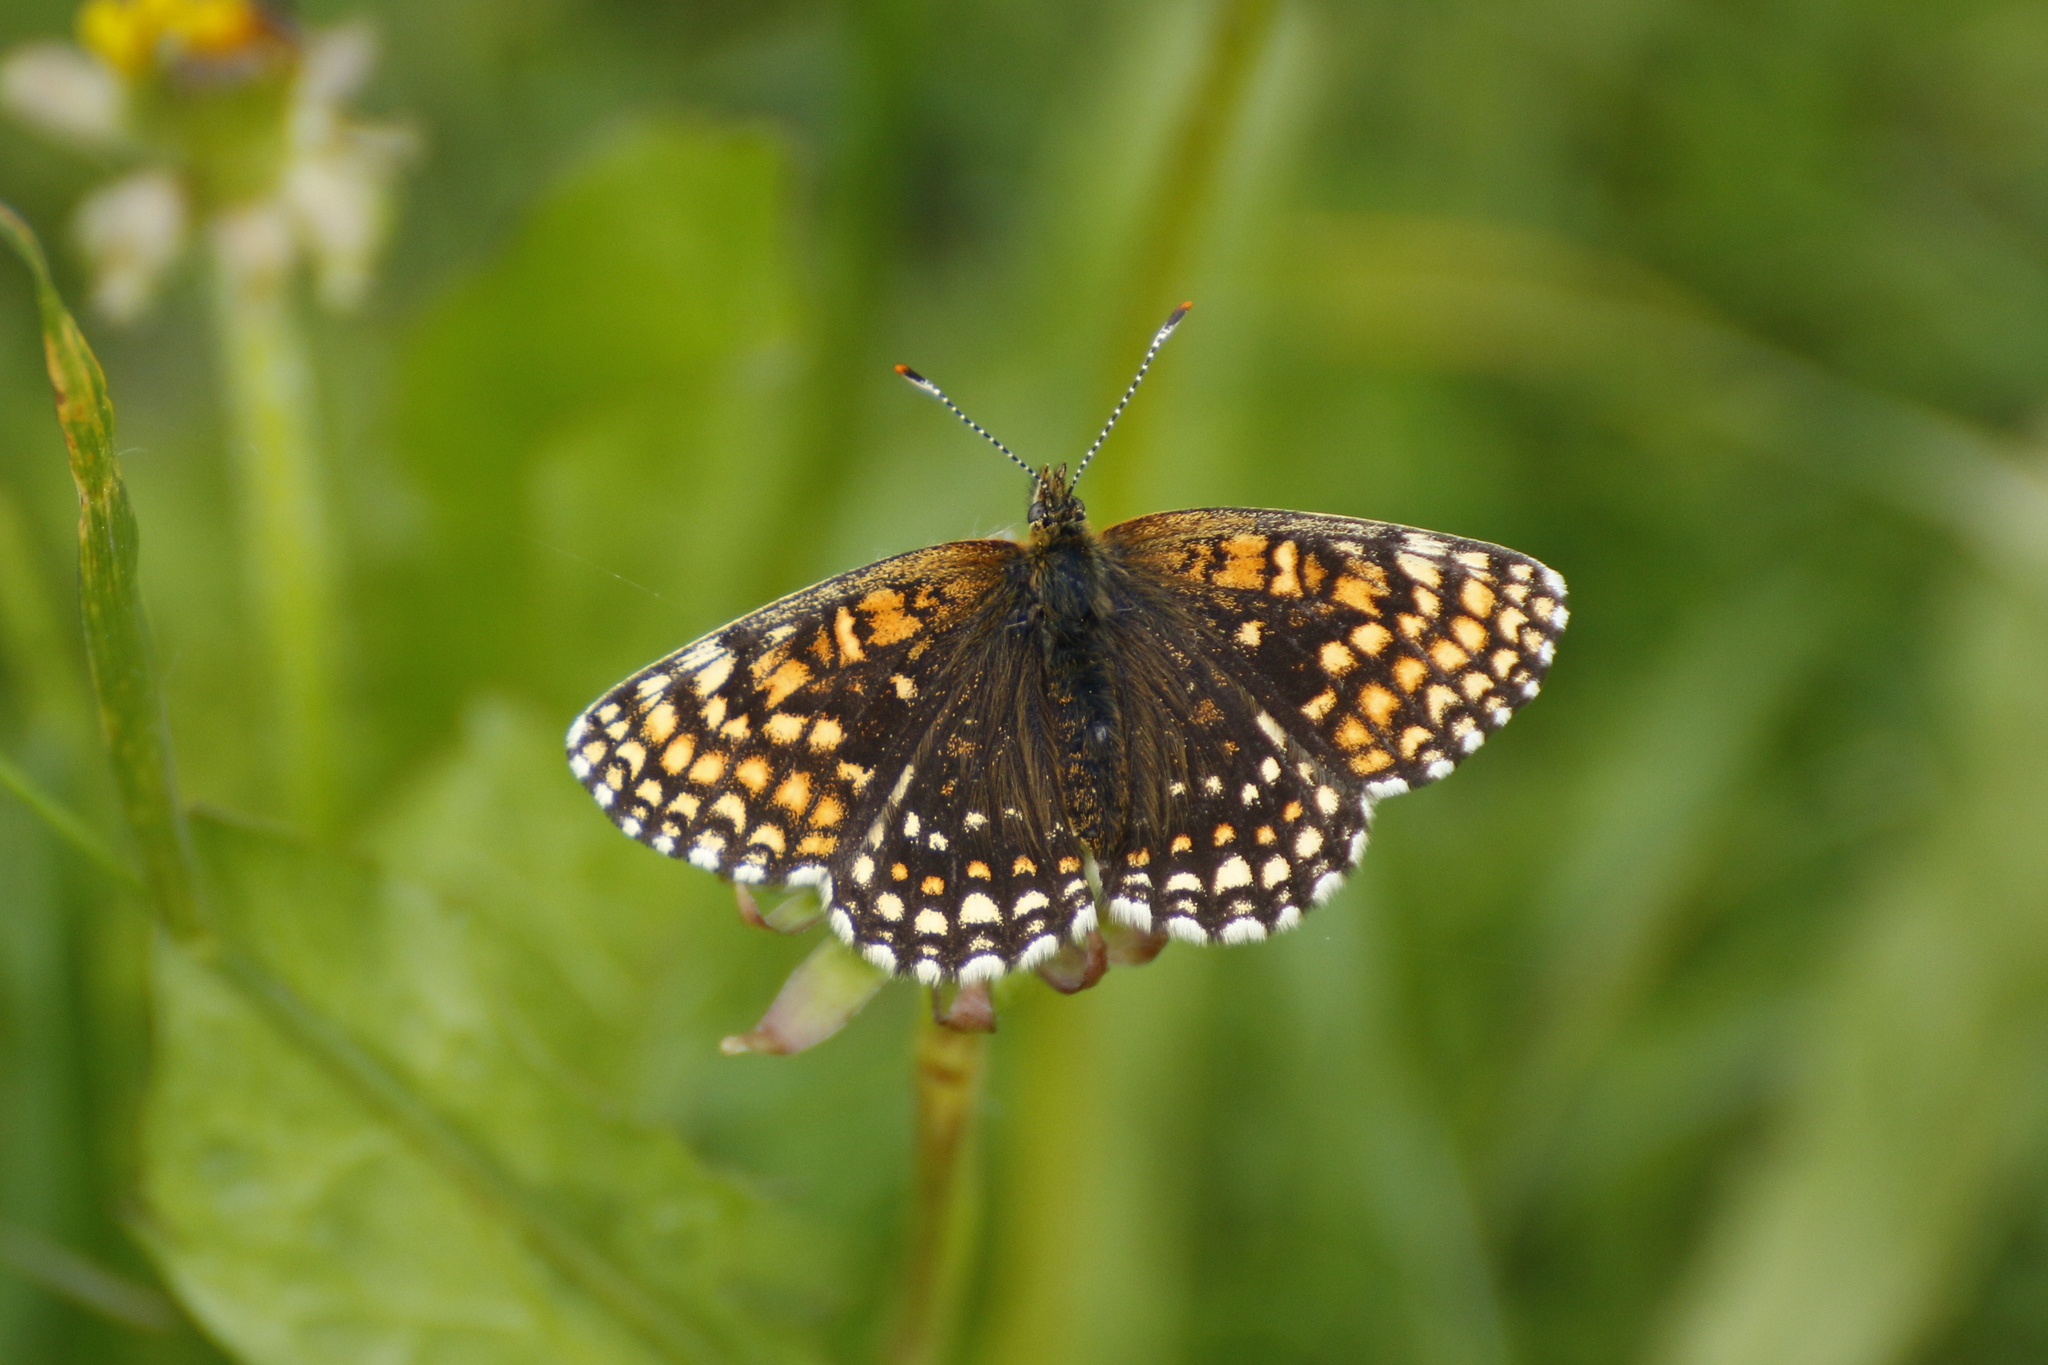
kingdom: Animalia
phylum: Arthropoda
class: Insecta
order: Lepidoptera
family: Nymphalidae
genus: Melitaea
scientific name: Melitaea diamina
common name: False heath fritillary
